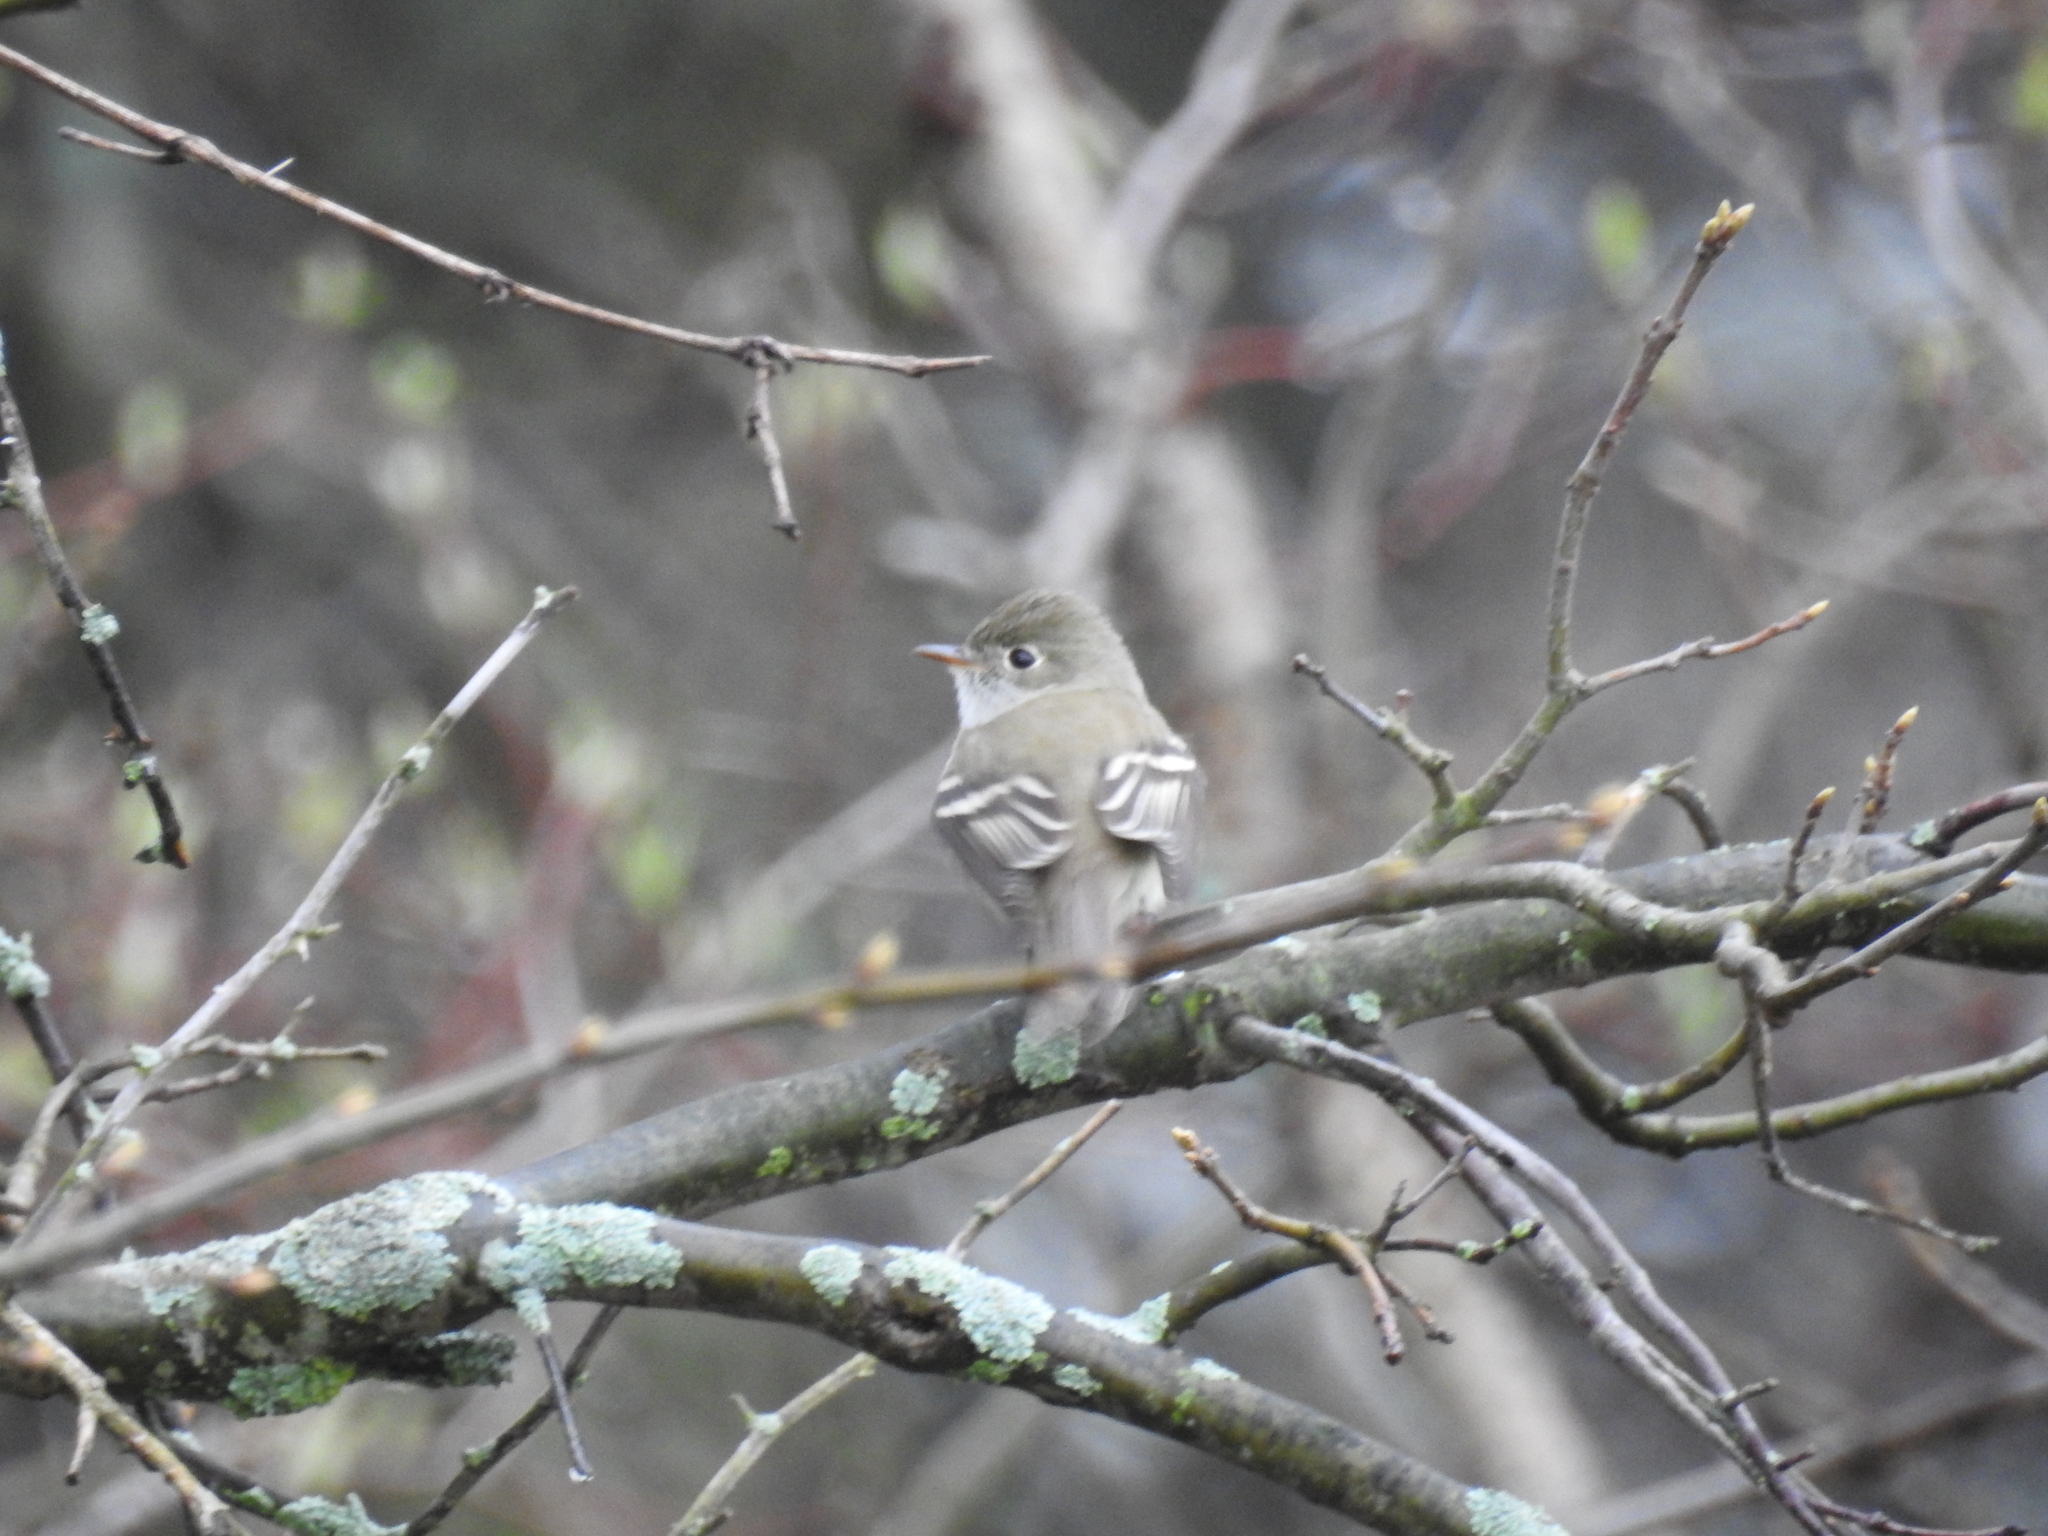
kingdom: Animalia
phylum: Chordata
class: Aves
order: Passeriformes
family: Tyrannidae
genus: Empidonax
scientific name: Empidonax minimus
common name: Least flycatcher
